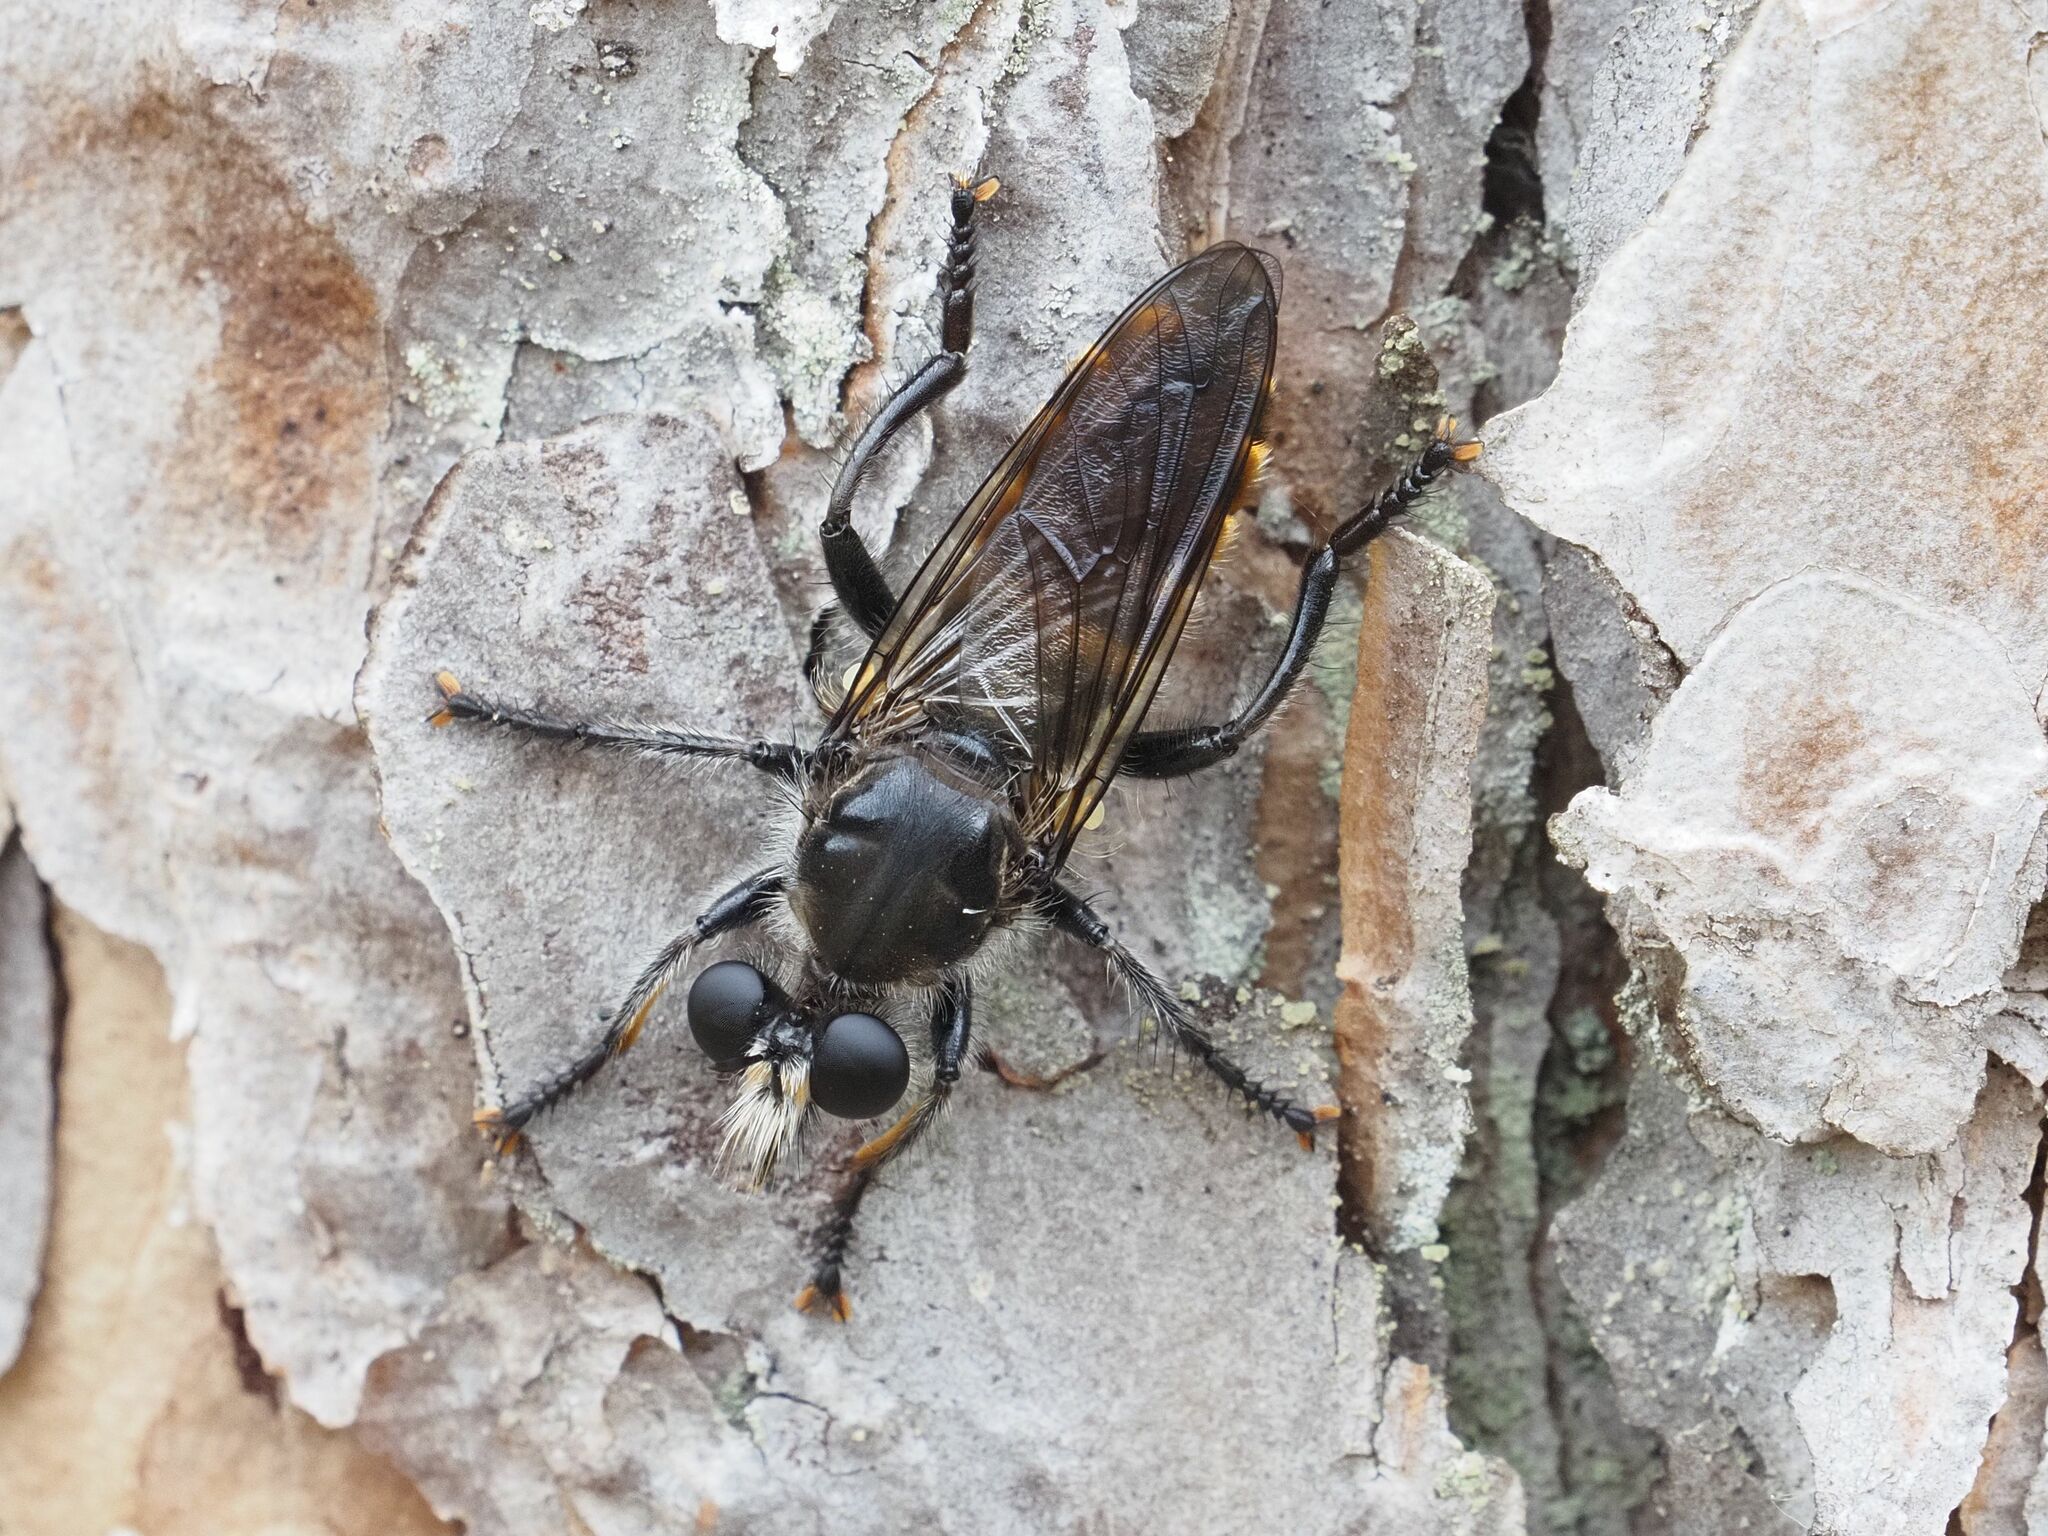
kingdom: Animalia
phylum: Arthropoda
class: Insecta
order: Diptera
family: Asilidae
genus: Lamyra
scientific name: Lamyra ignea
